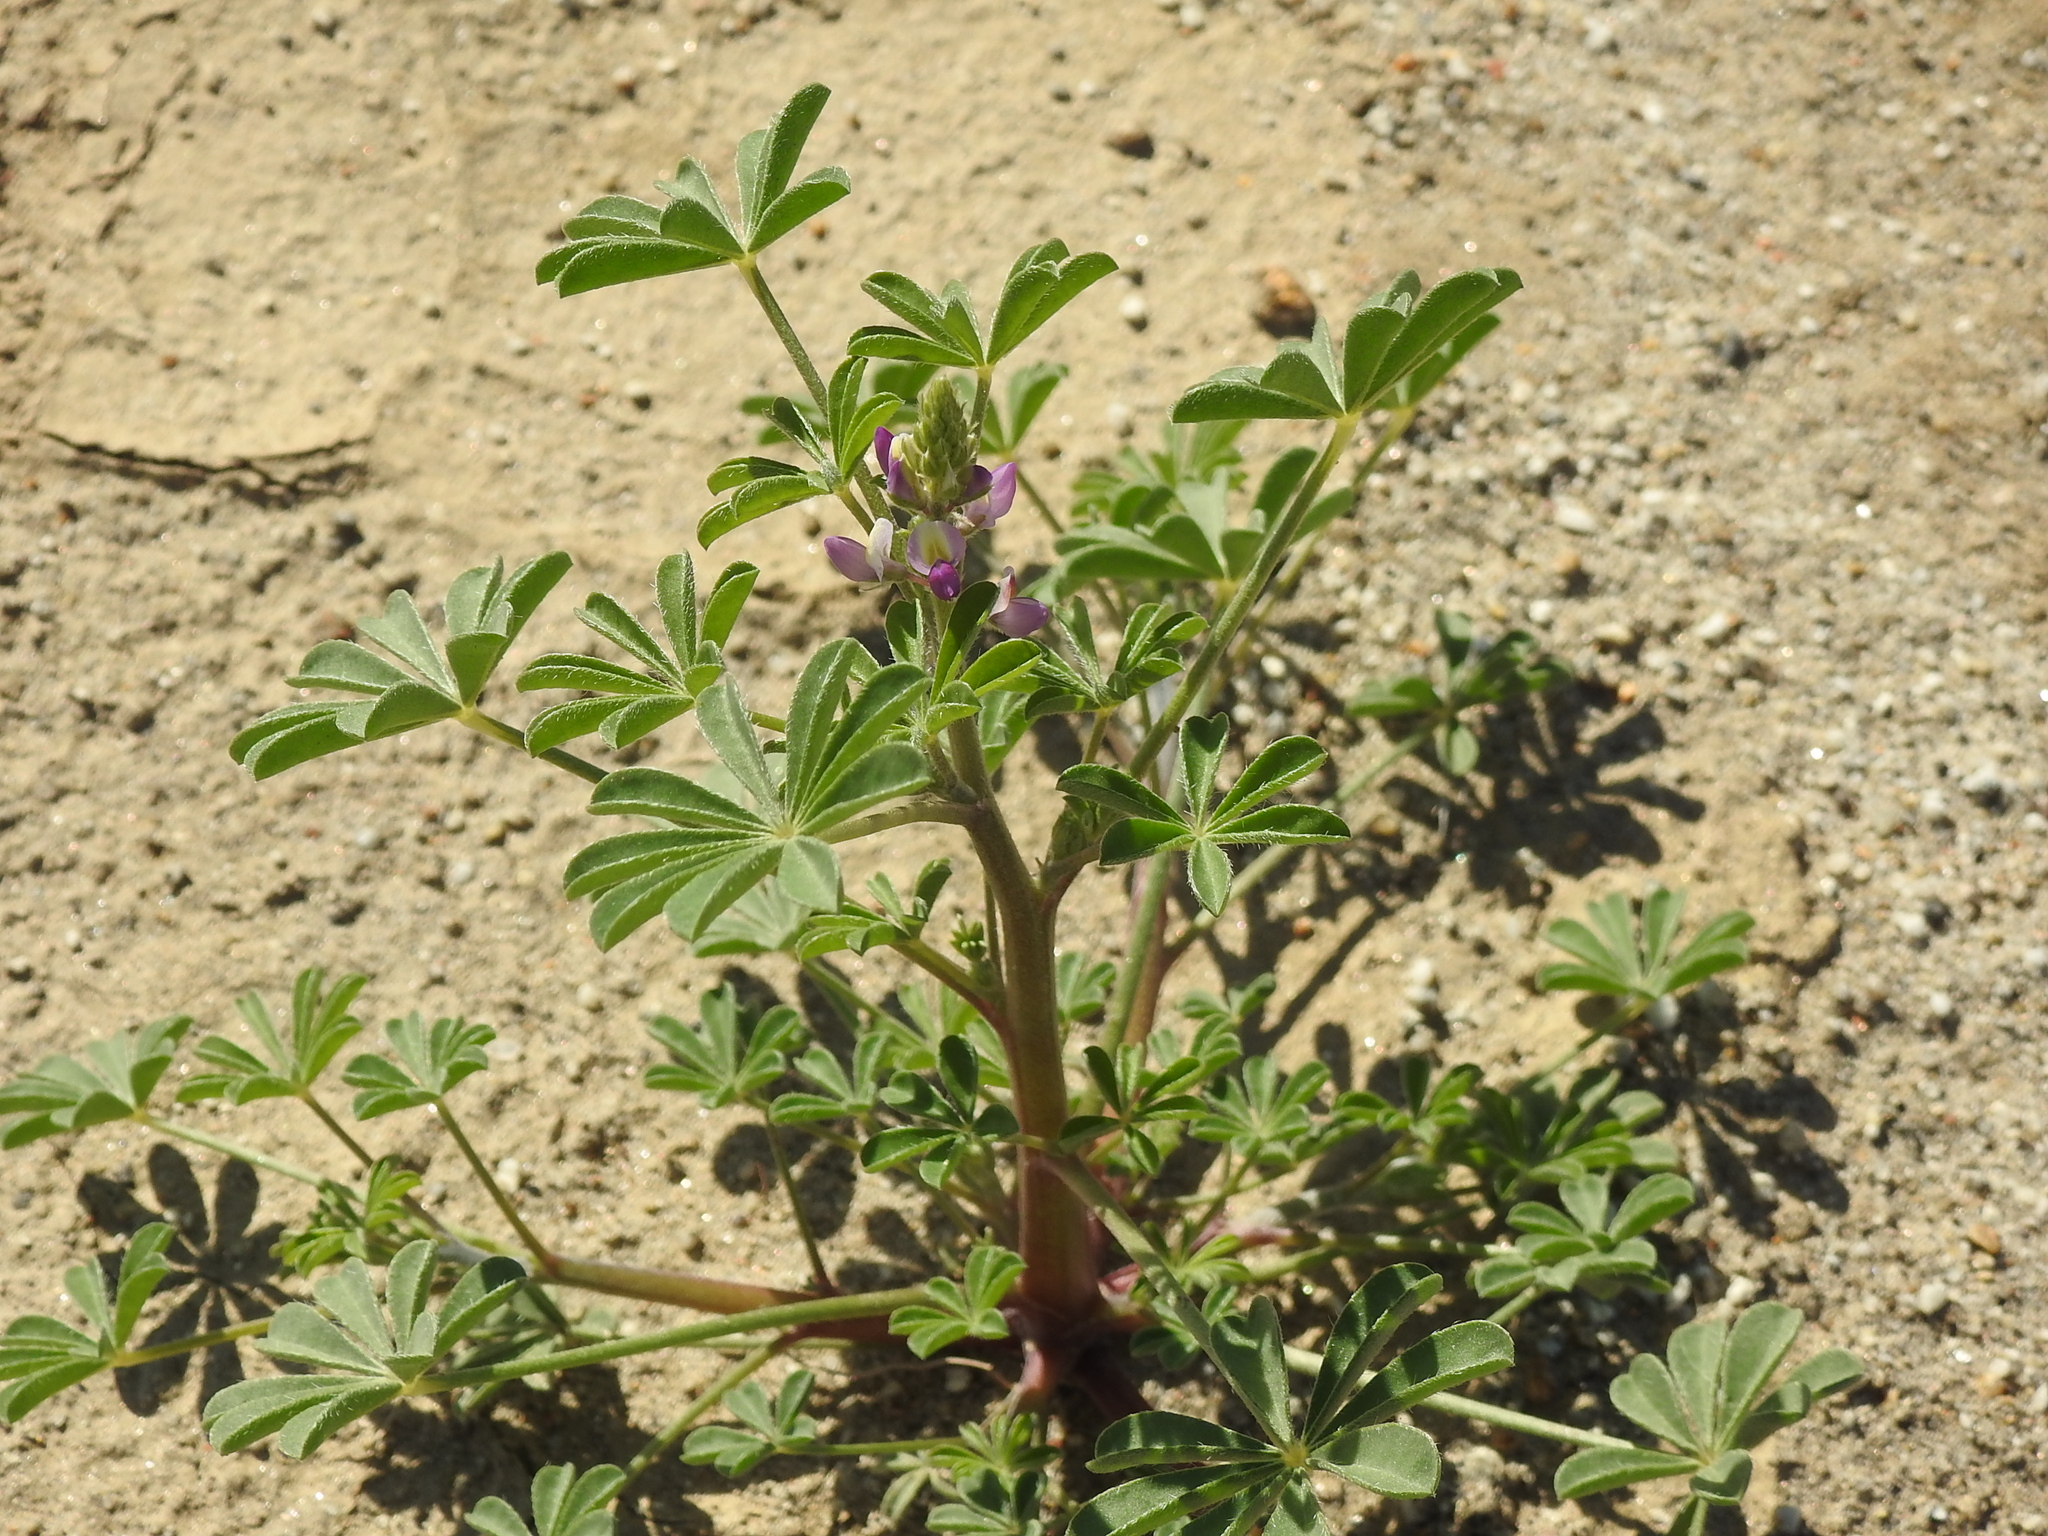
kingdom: Plantae
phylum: Tracheophyta
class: Magnoliopsida
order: Fabales
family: Fabaceae
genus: Lupinus
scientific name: Lupinus arizonicus
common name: Arizona lupine
